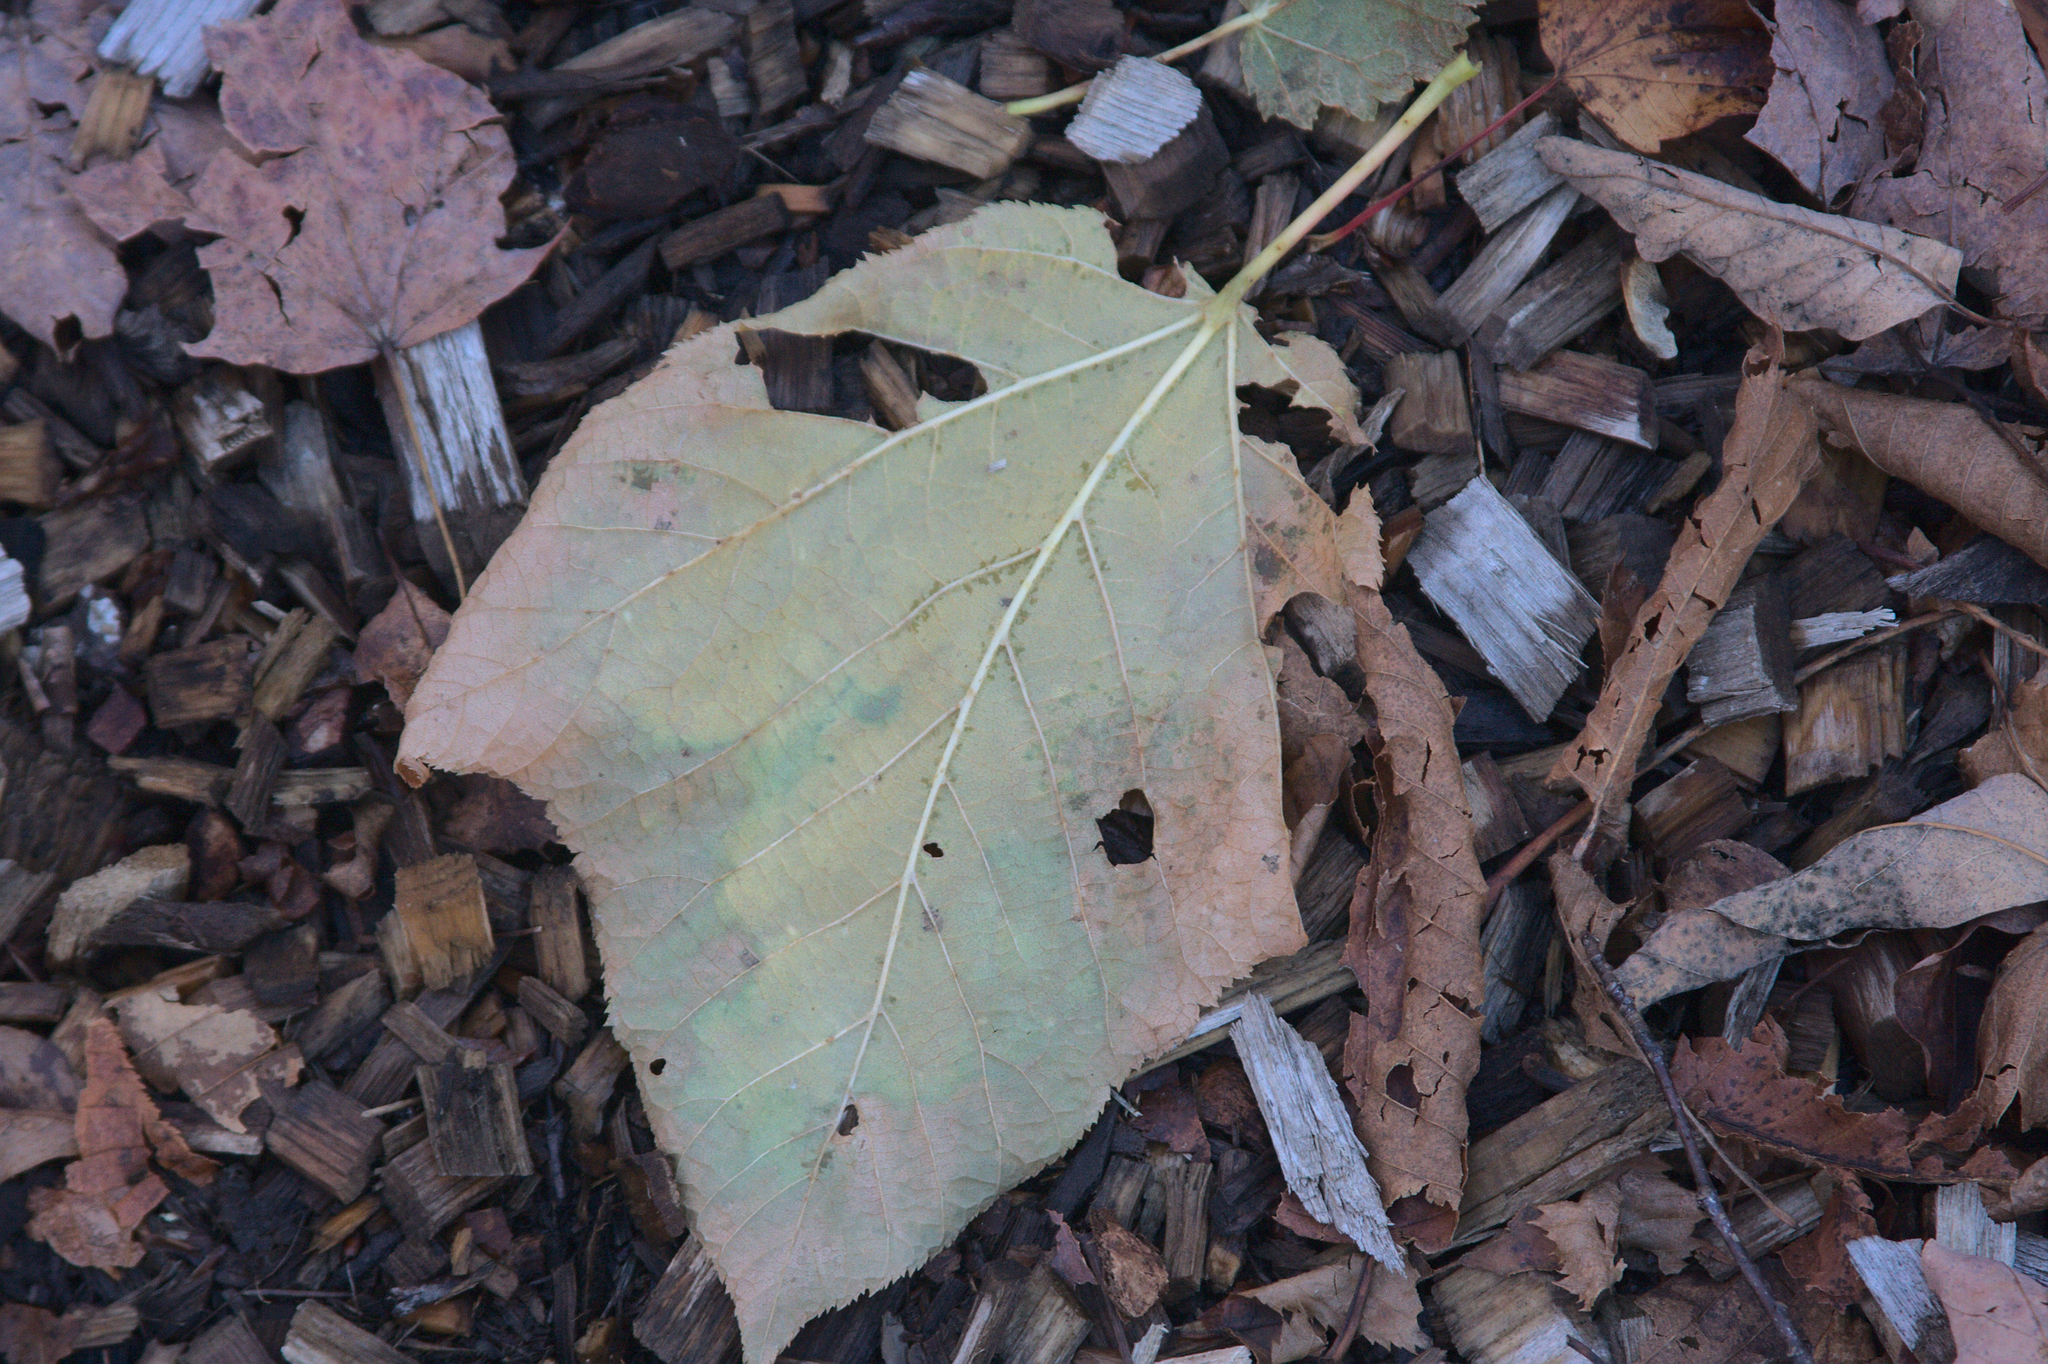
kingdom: Plantae
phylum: Tracheophyta
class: Magnoliopsida
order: Sapindales
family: Sapindaceae
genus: Acer
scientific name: Acer pensylvanicum
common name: Moosewood
